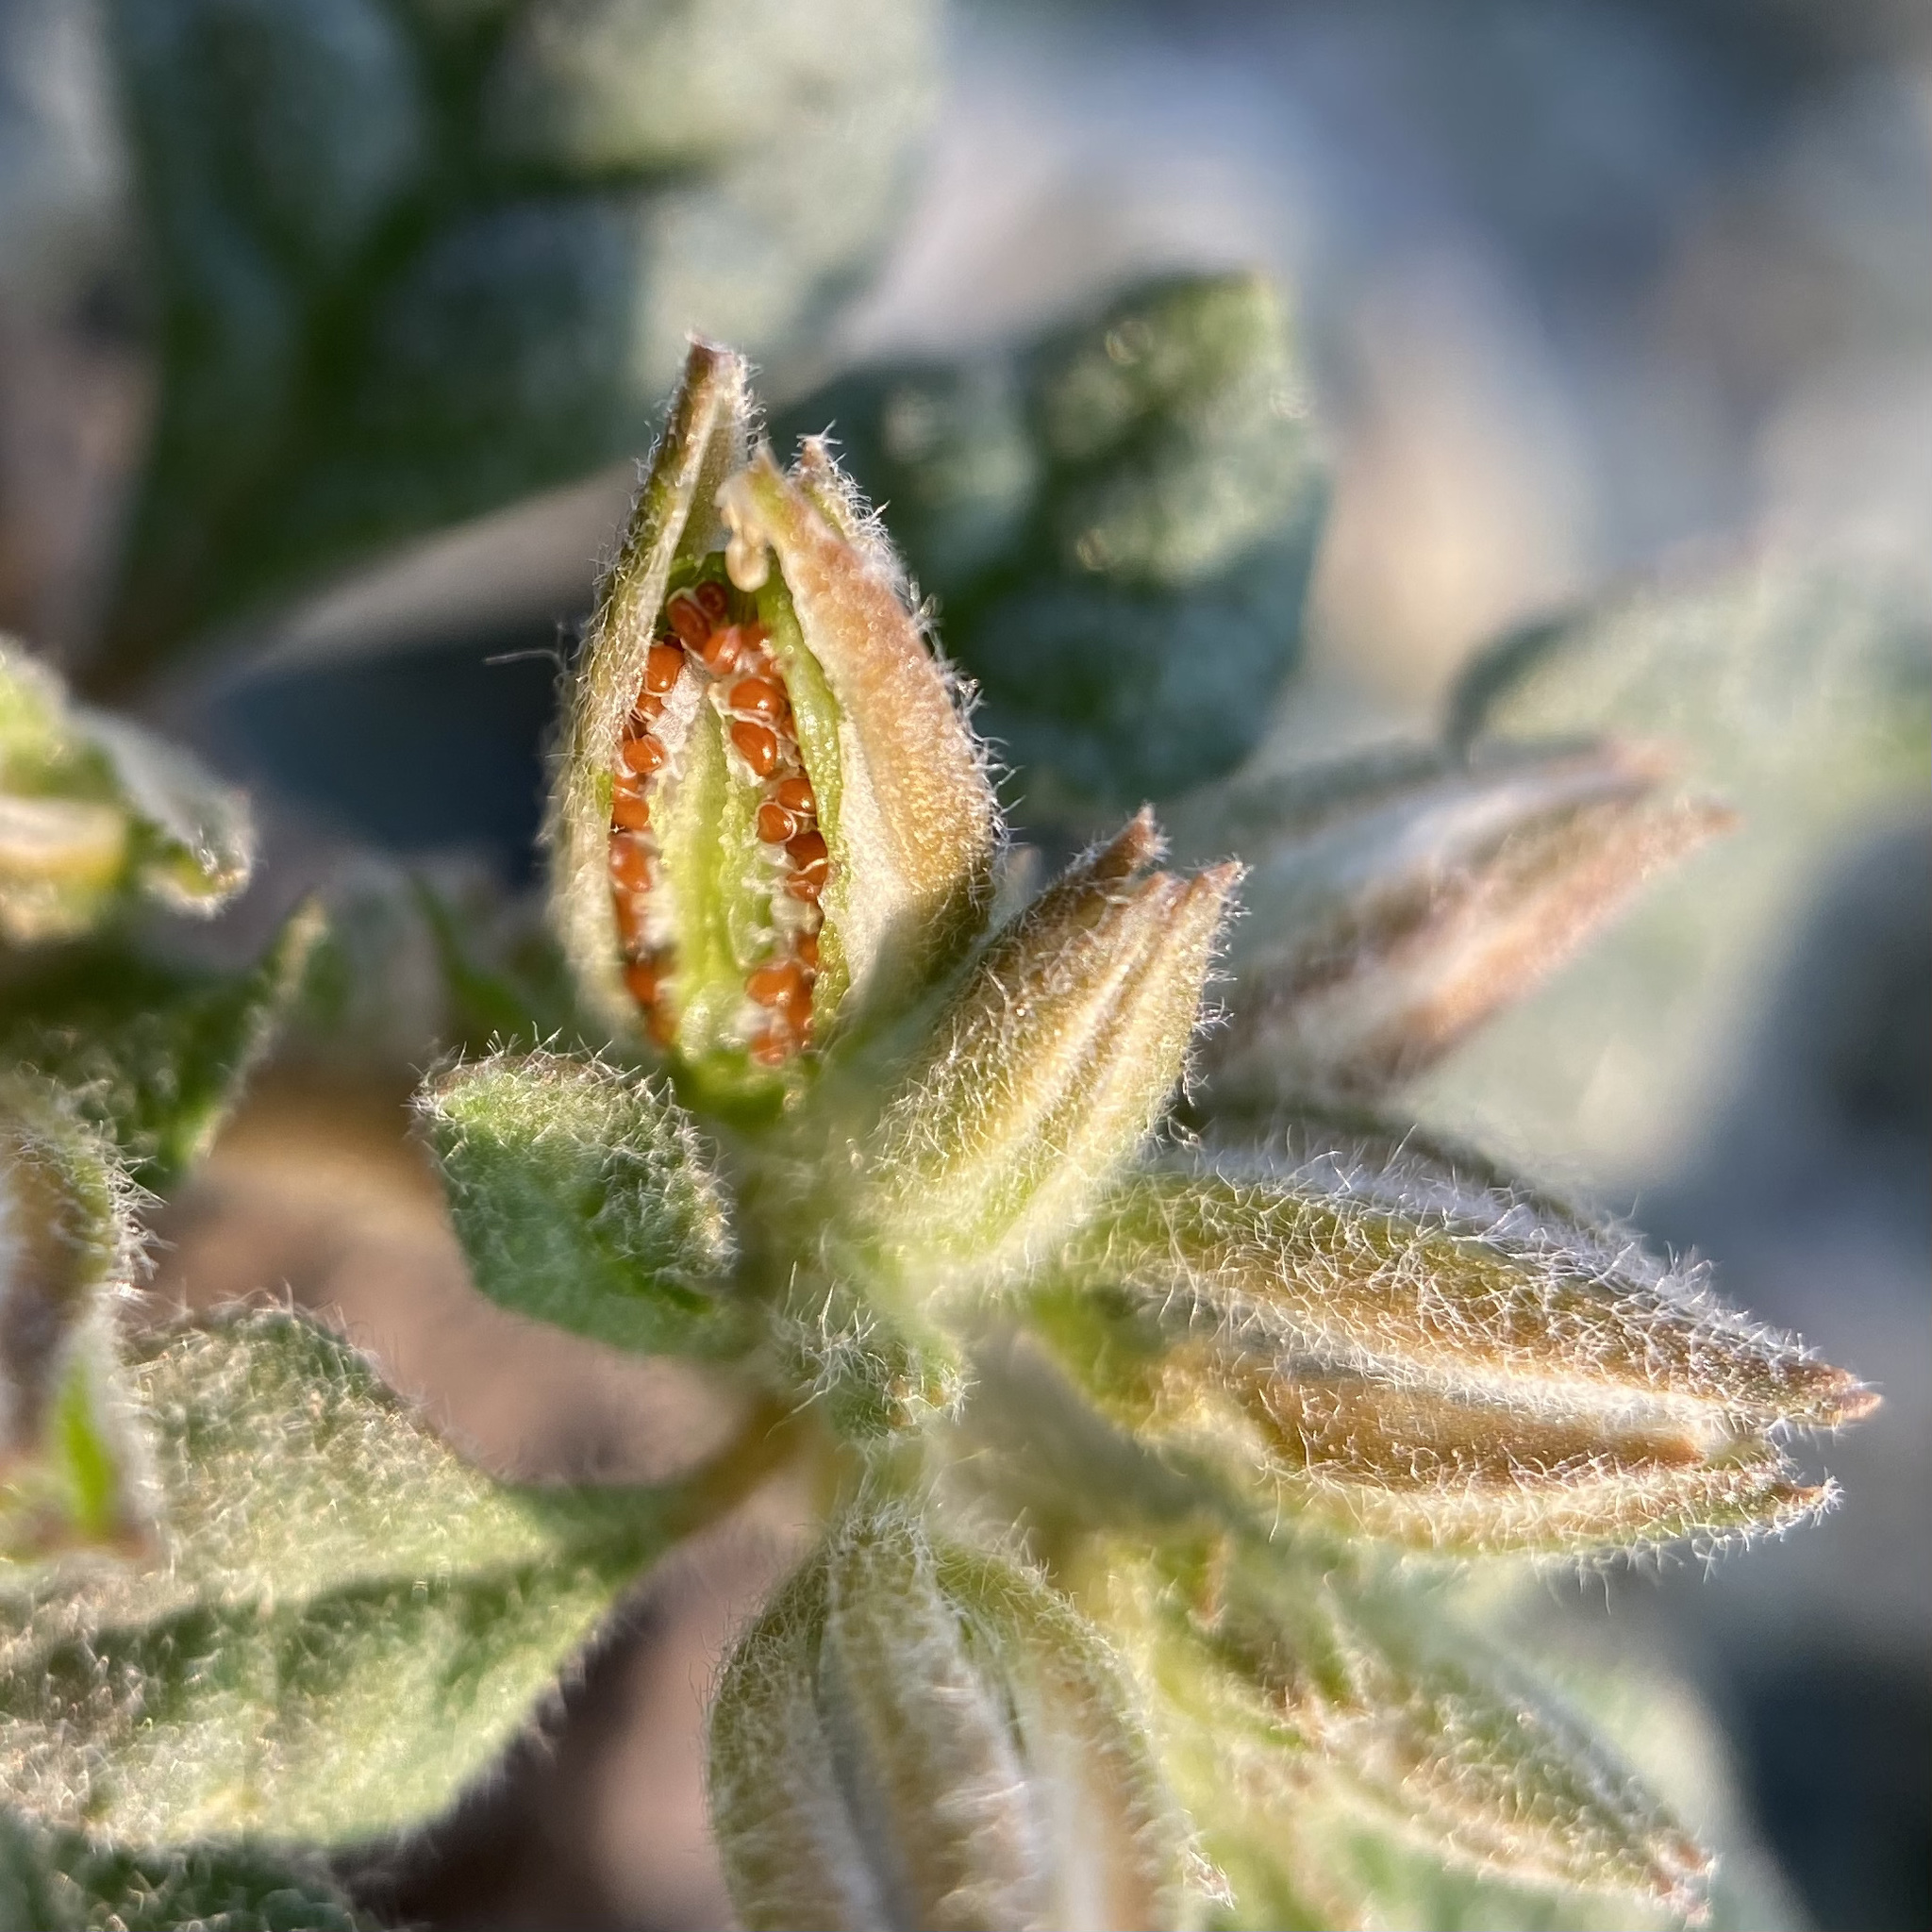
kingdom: Plantae
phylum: Tracheophyta
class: Magnoliopsida
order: Caryophyllales
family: Molluginaceae
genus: Glinus
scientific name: Glinus radiatus
